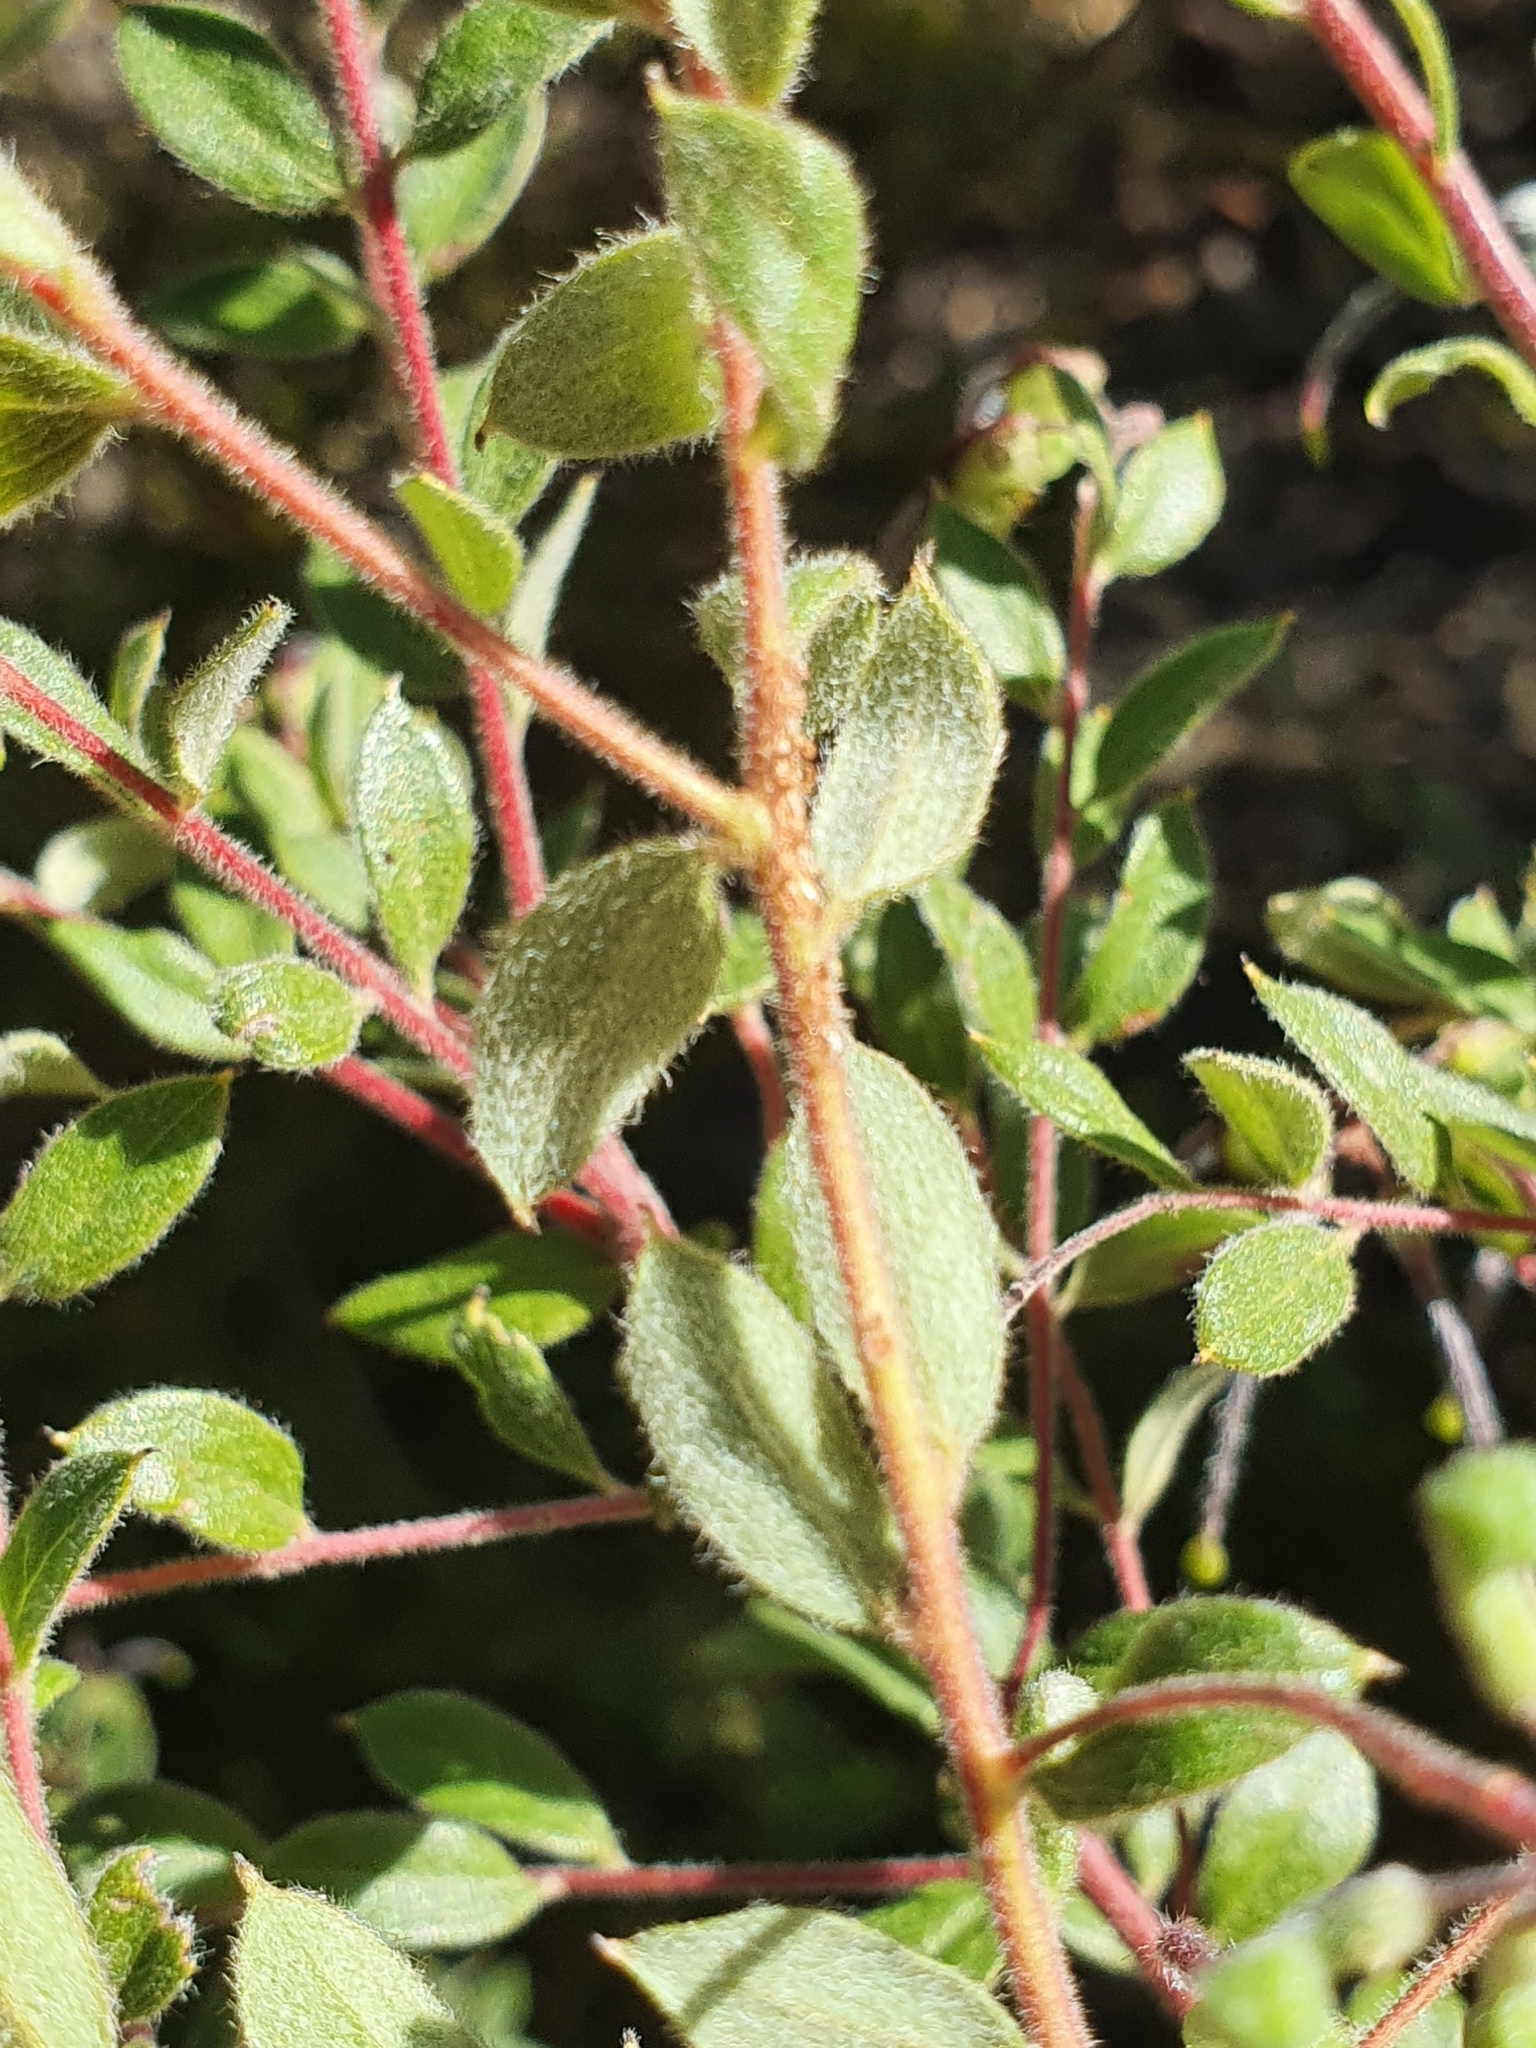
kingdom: Plantae
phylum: Tracheophyta
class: Magnoliopsida
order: Proteales
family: Proteaceae
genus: Grevillea
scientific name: Grevillea mucronulata
